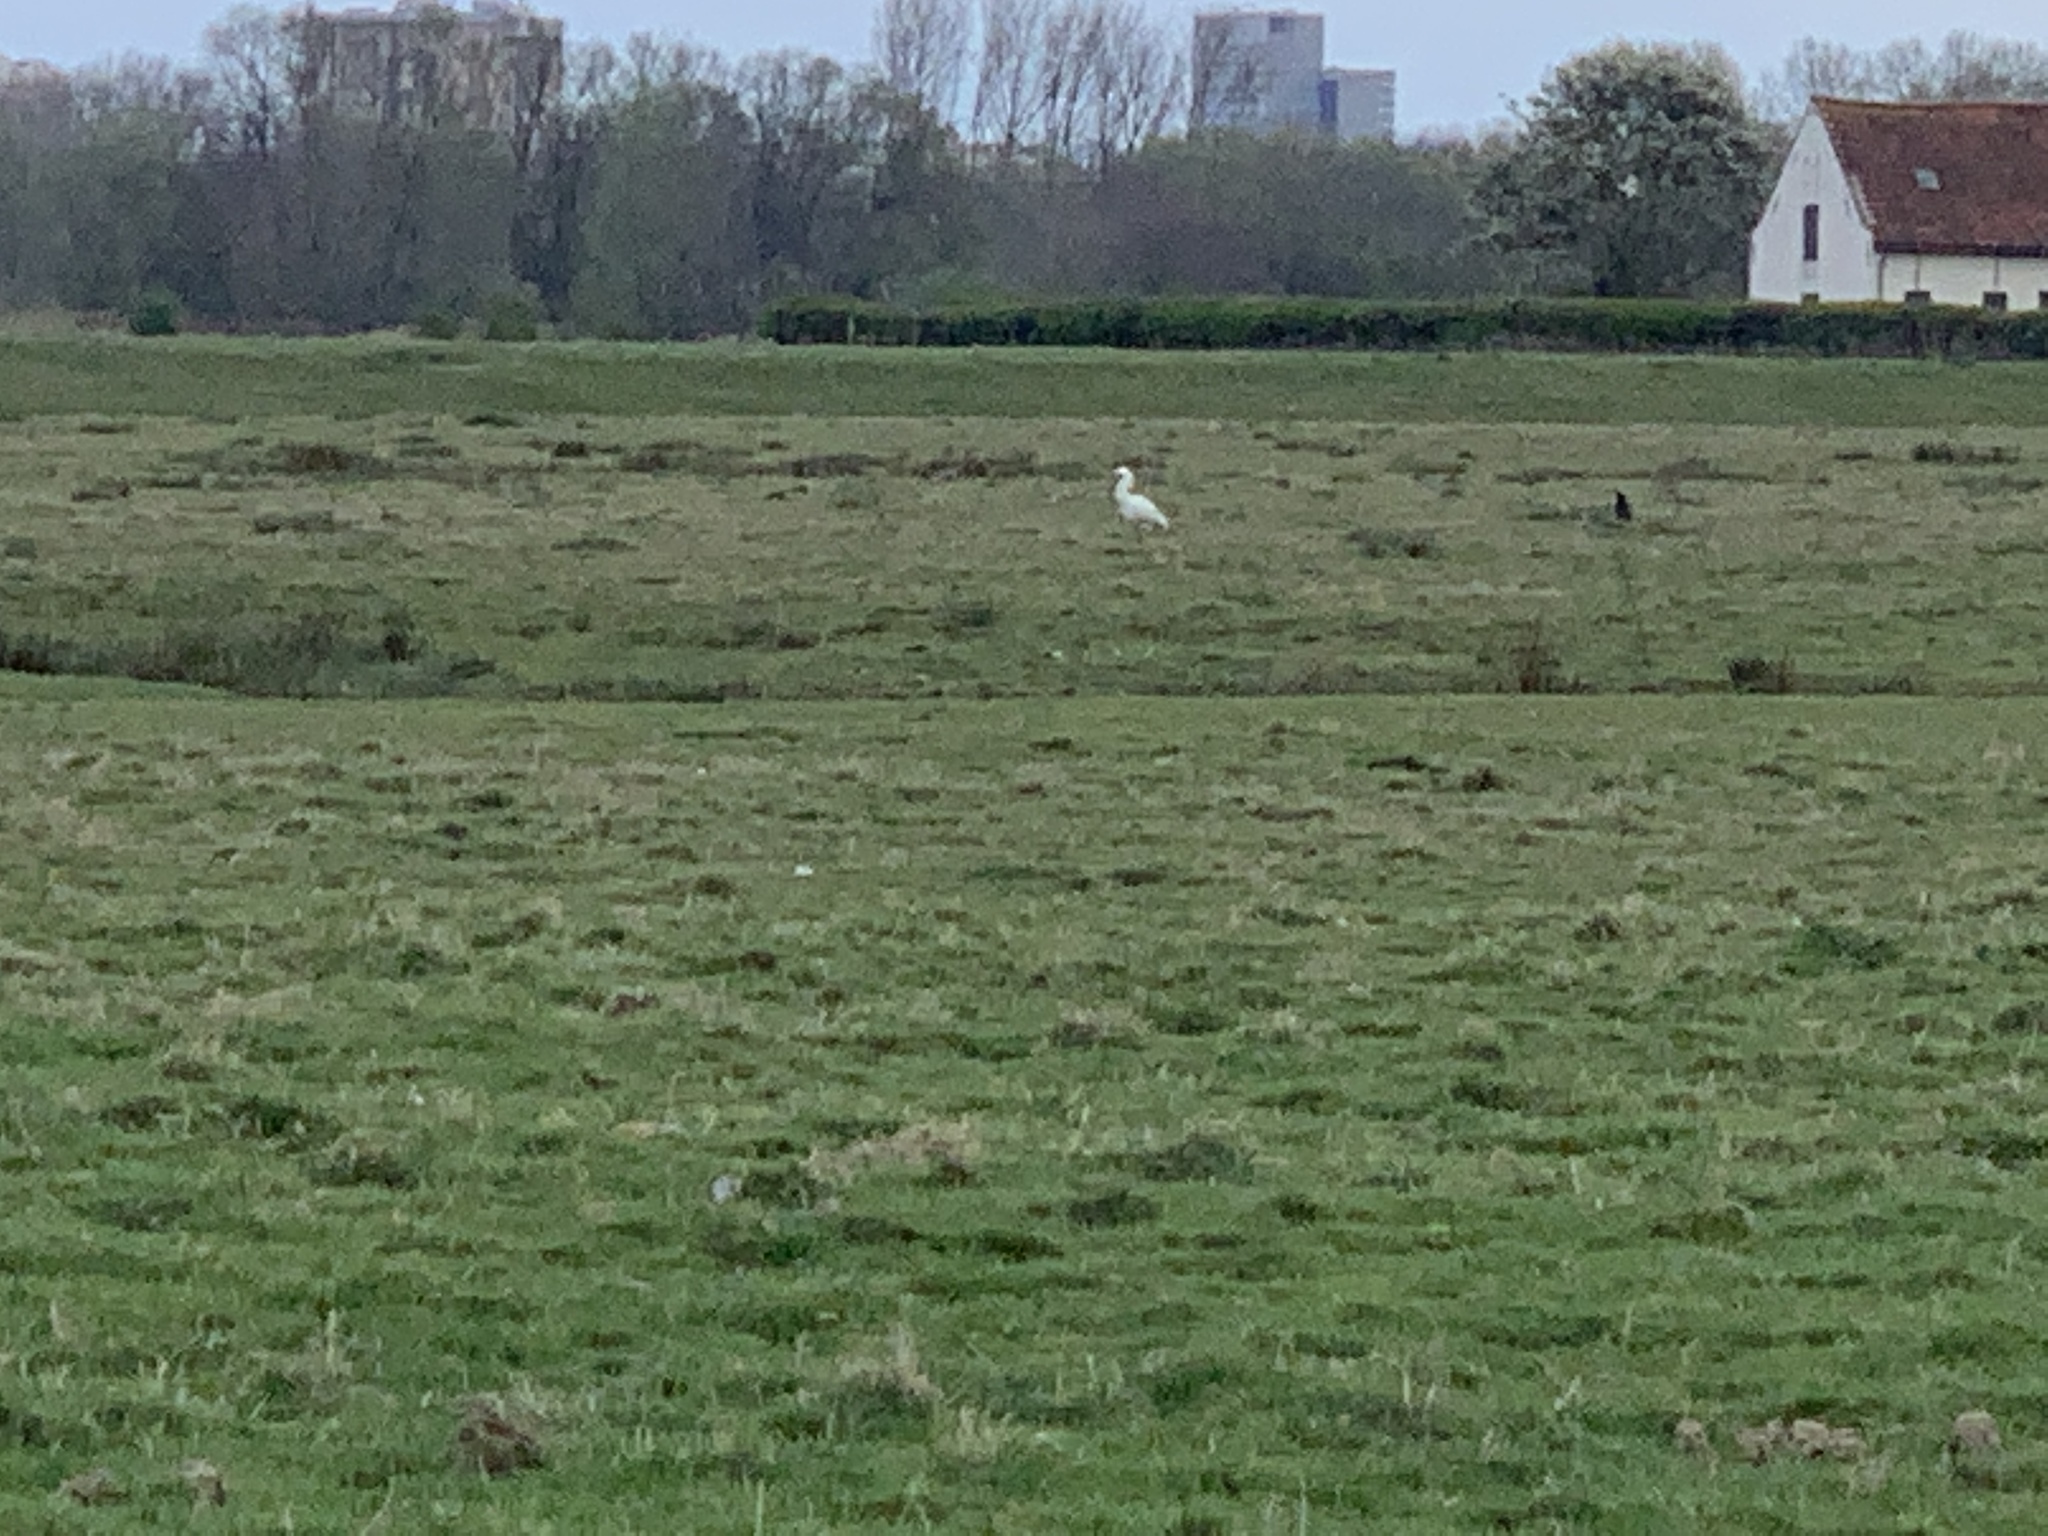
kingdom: Animalia
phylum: Chordata
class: Aves
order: Pelecaniformes
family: Threskiornithidae
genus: Platalea
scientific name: Platalea leucorodia
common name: Eurasian spoonbill
